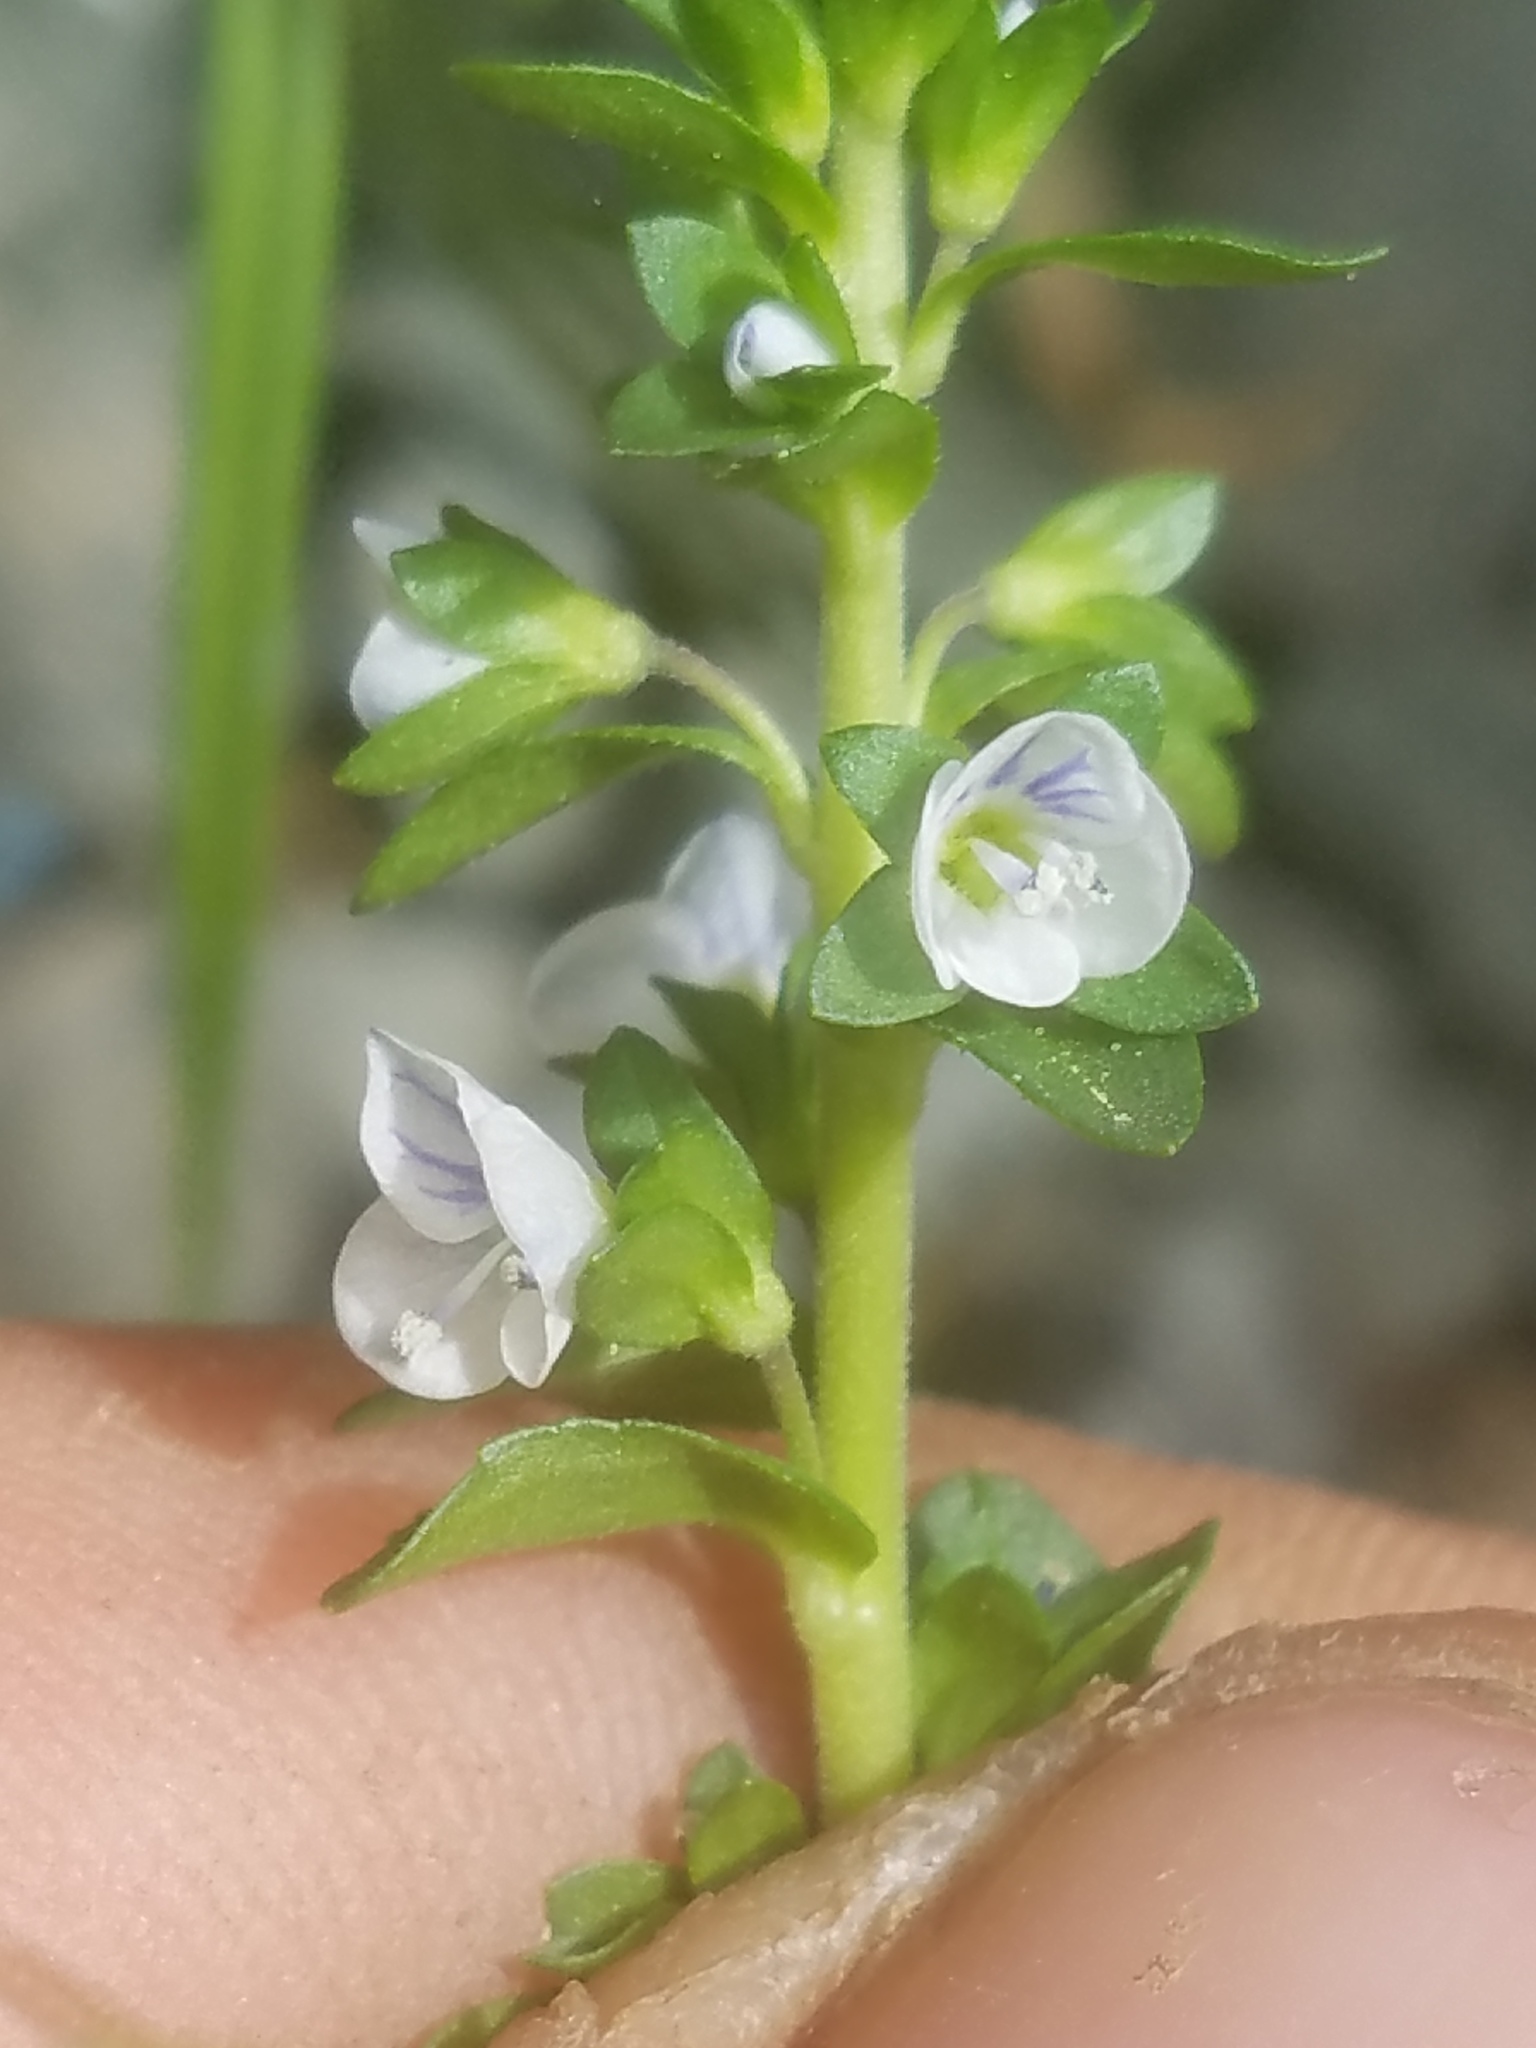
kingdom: Plantae
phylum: Tracheophyta
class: Magnoliopsida
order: Lamiales
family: Plantaginaceae
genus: Veronica
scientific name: Veronica serpyllifolia
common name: Thyme-leaved speedwell
